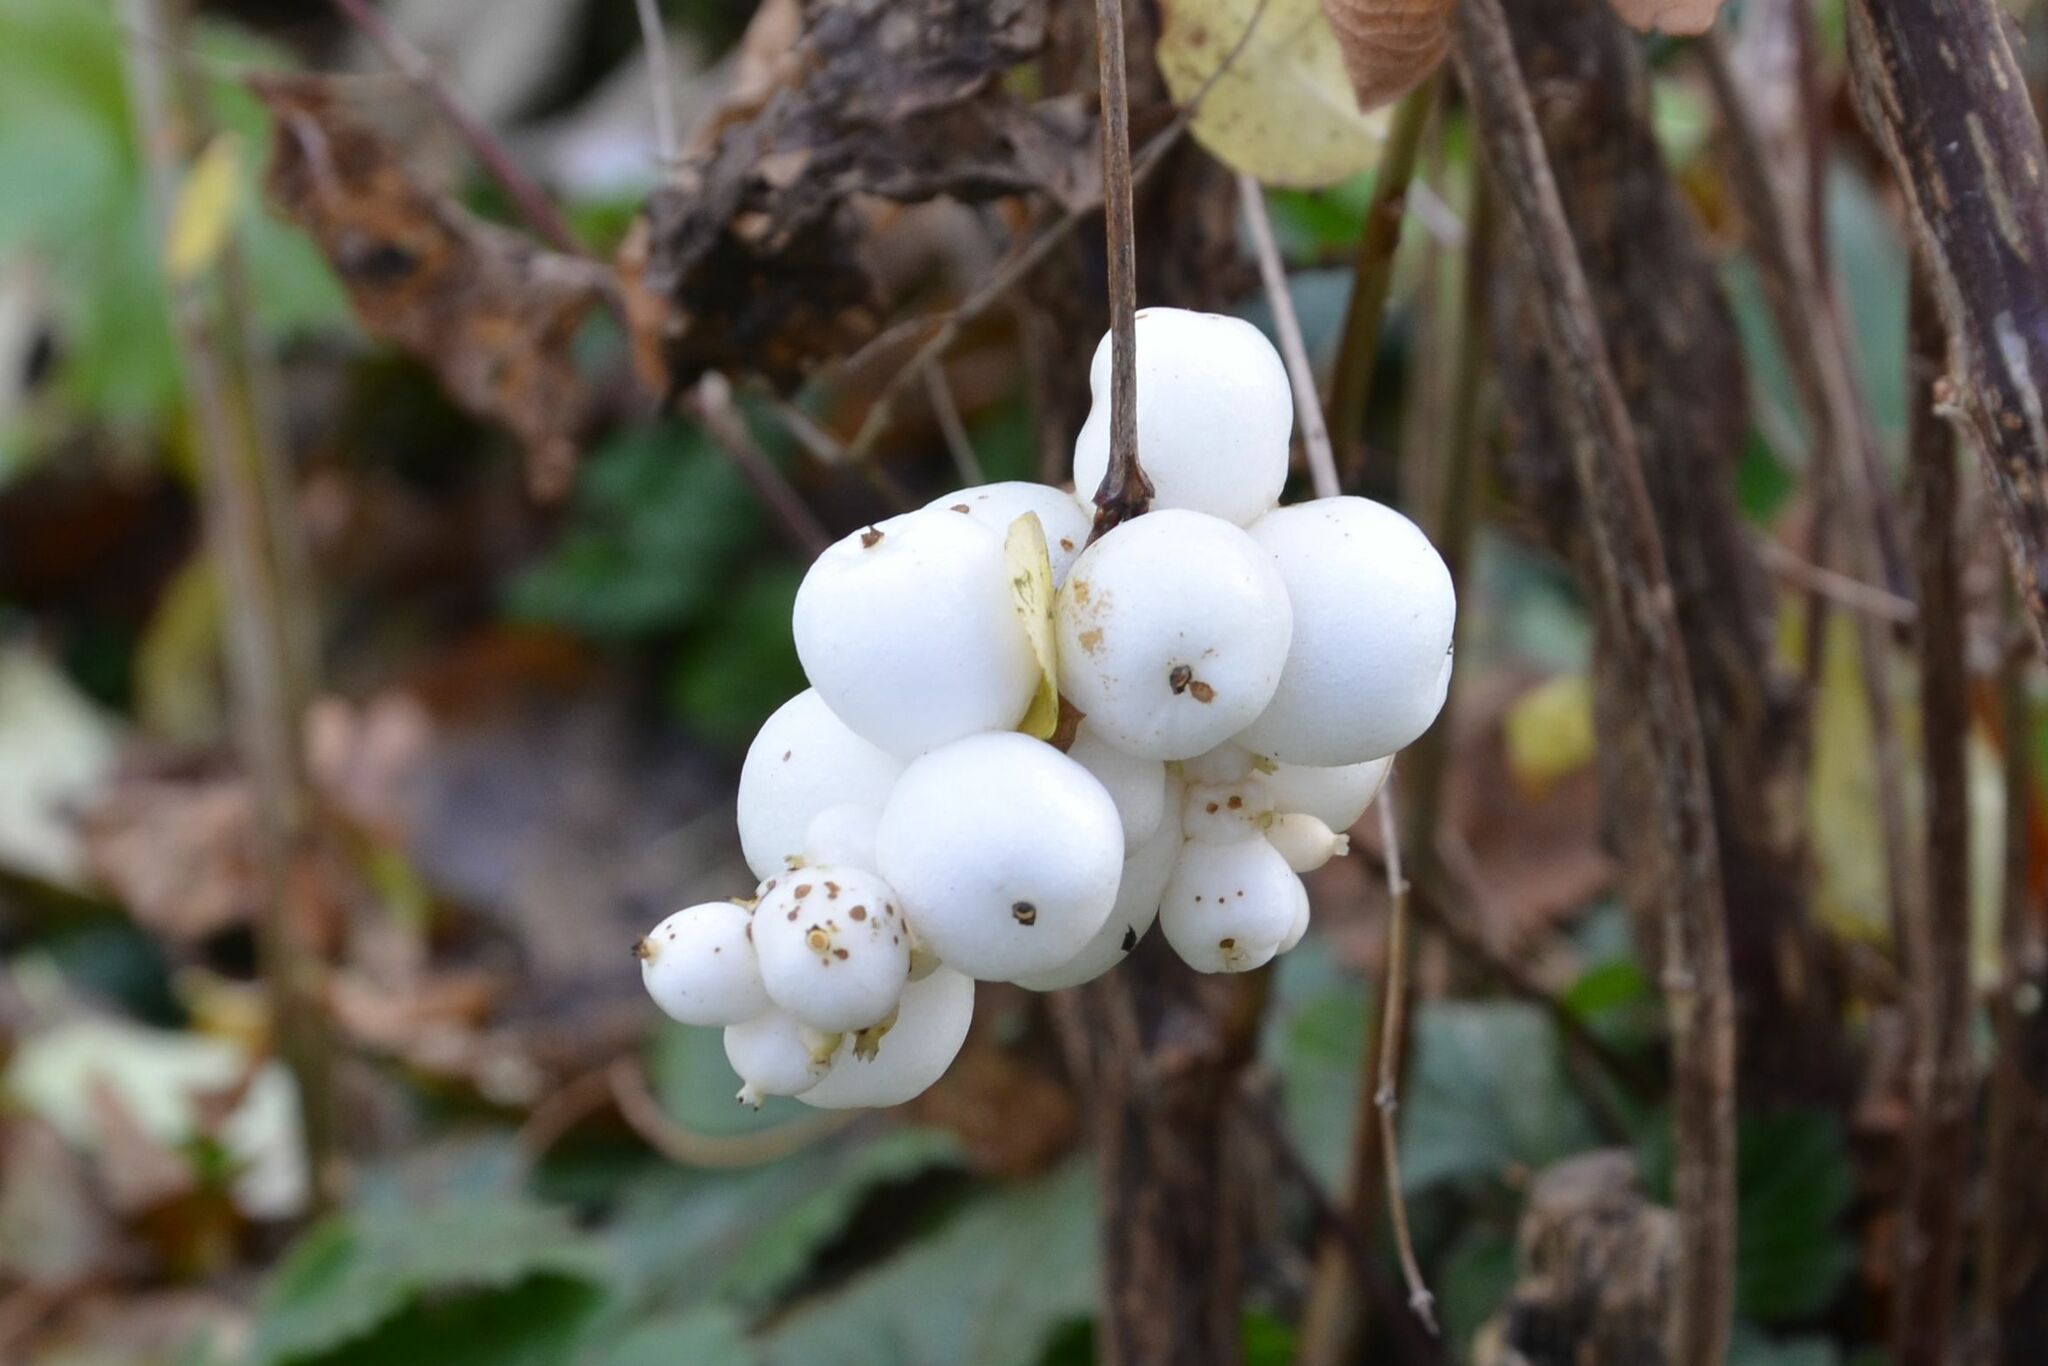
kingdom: Plantae
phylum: Tracheophyta
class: Magnoliopsida
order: Dipsacales
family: Caprifoliaceae
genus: Symphoricarpos
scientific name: Symphoricarpos albus
